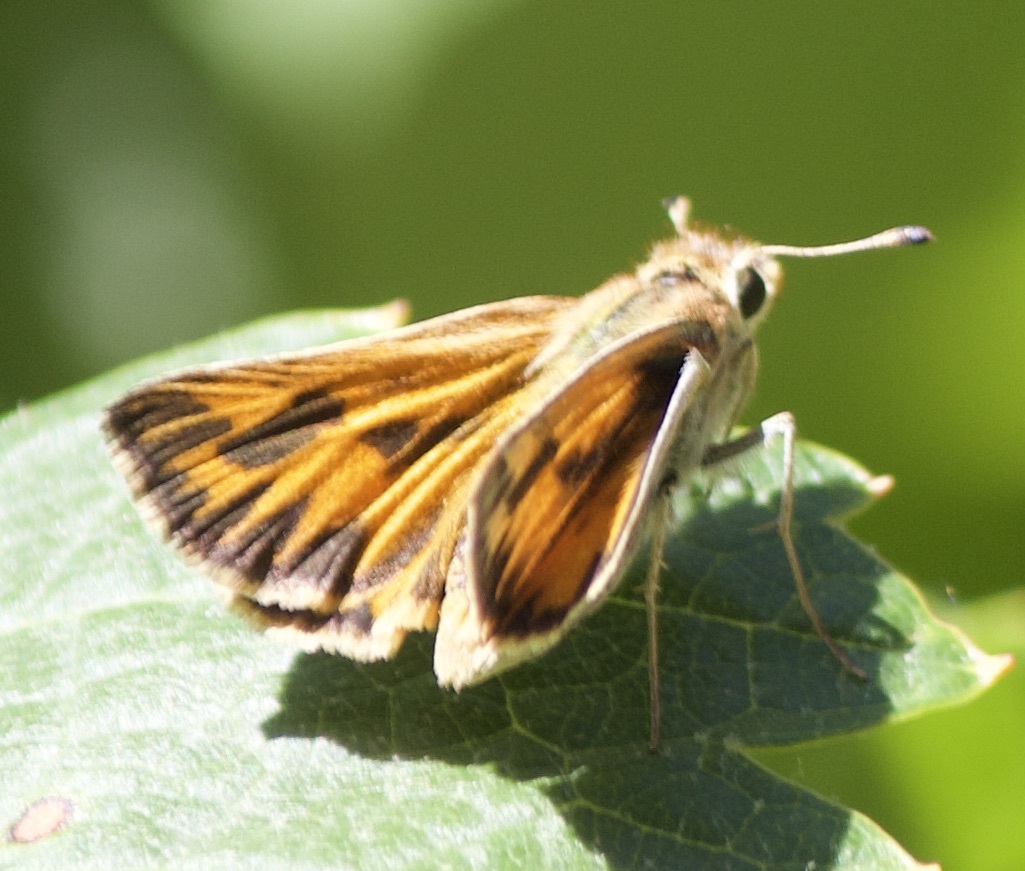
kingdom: Animalia
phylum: Arthropoda
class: Insecta
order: Lepidoptera
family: Hesperiidae
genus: Hylephila
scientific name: Hylephila fasciolata
